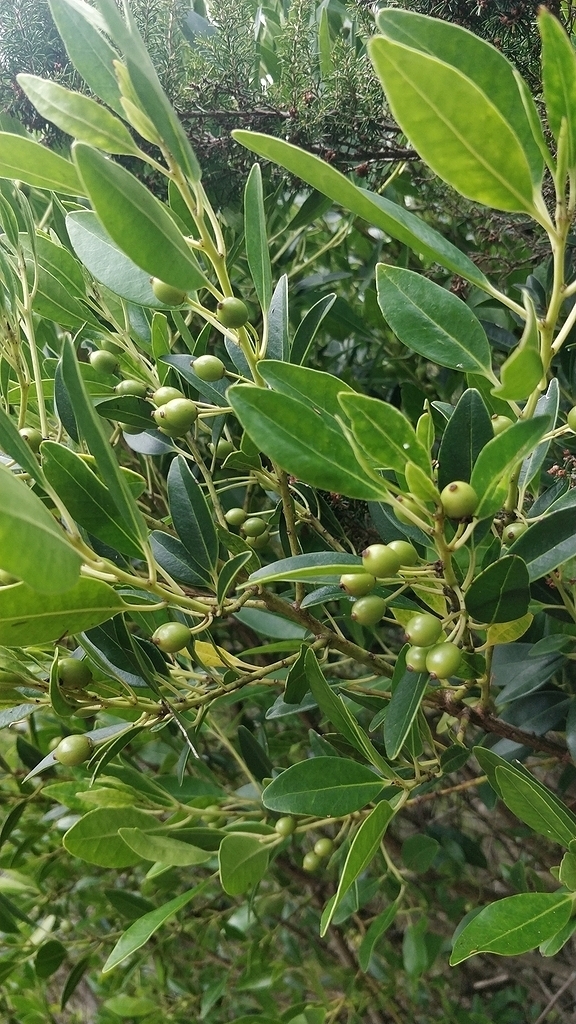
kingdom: Plantae
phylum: Tracheophyta
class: Magnoliopsida
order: Aquifoliales
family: Aquifoliaceae
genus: Ilex
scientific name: Ilex canariensis
